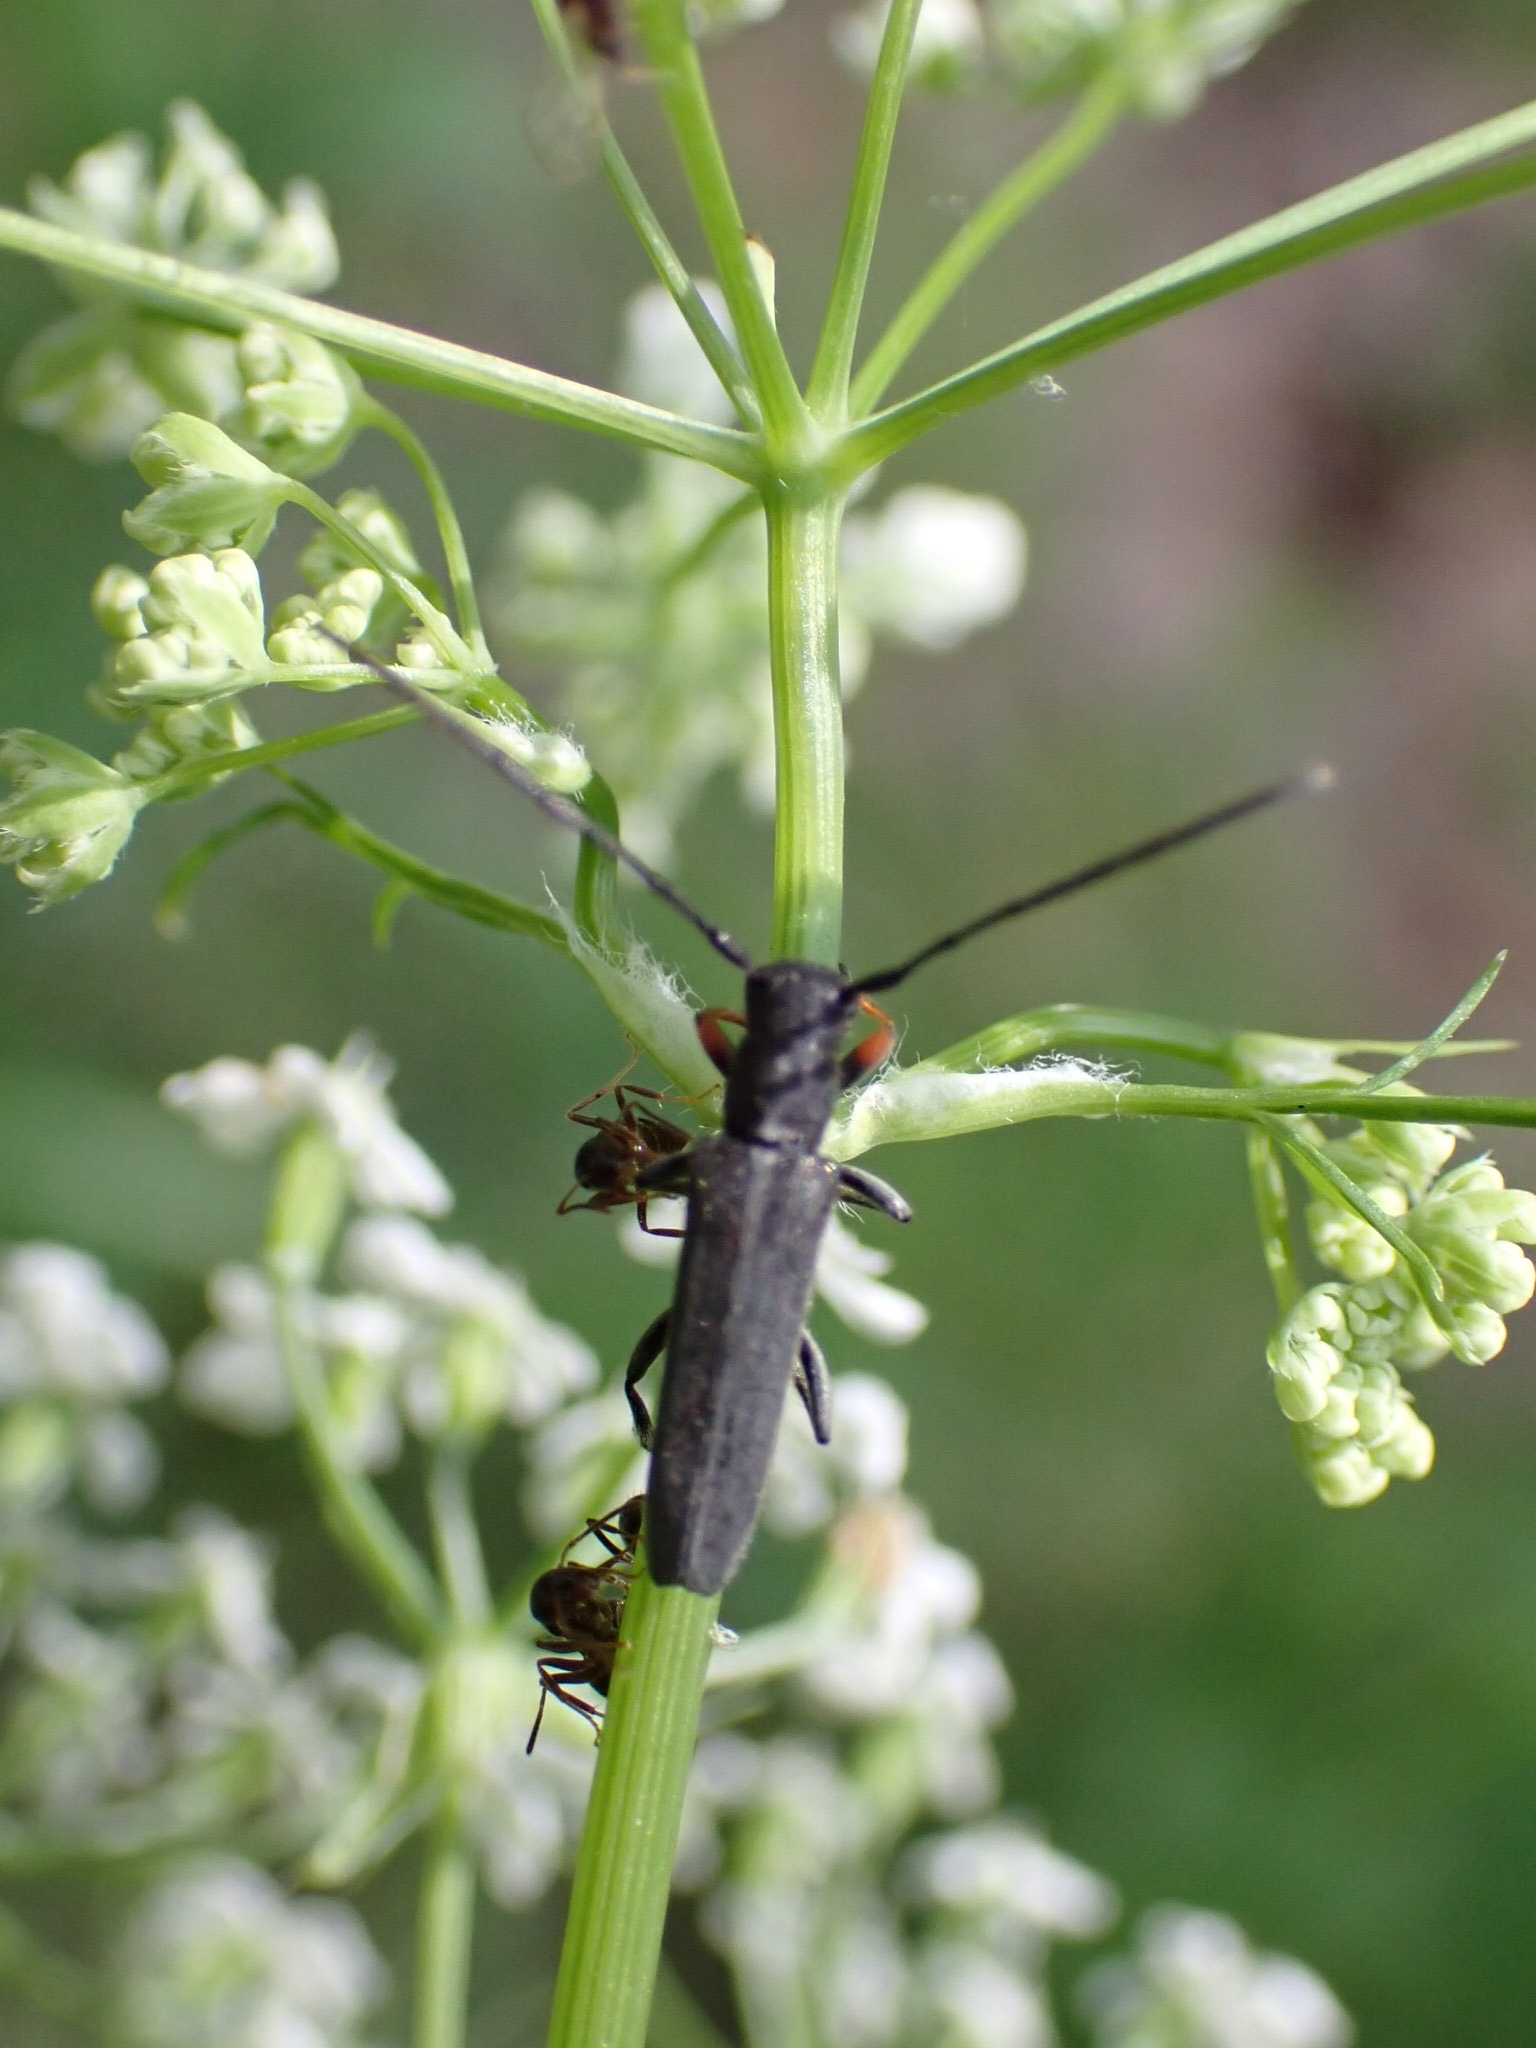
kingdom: Animalia
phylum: Arthropoda
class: Insecta
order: Coleoptera
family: Cerambycidae
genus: Phytoecia
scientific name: Phytoecia cylindrica
